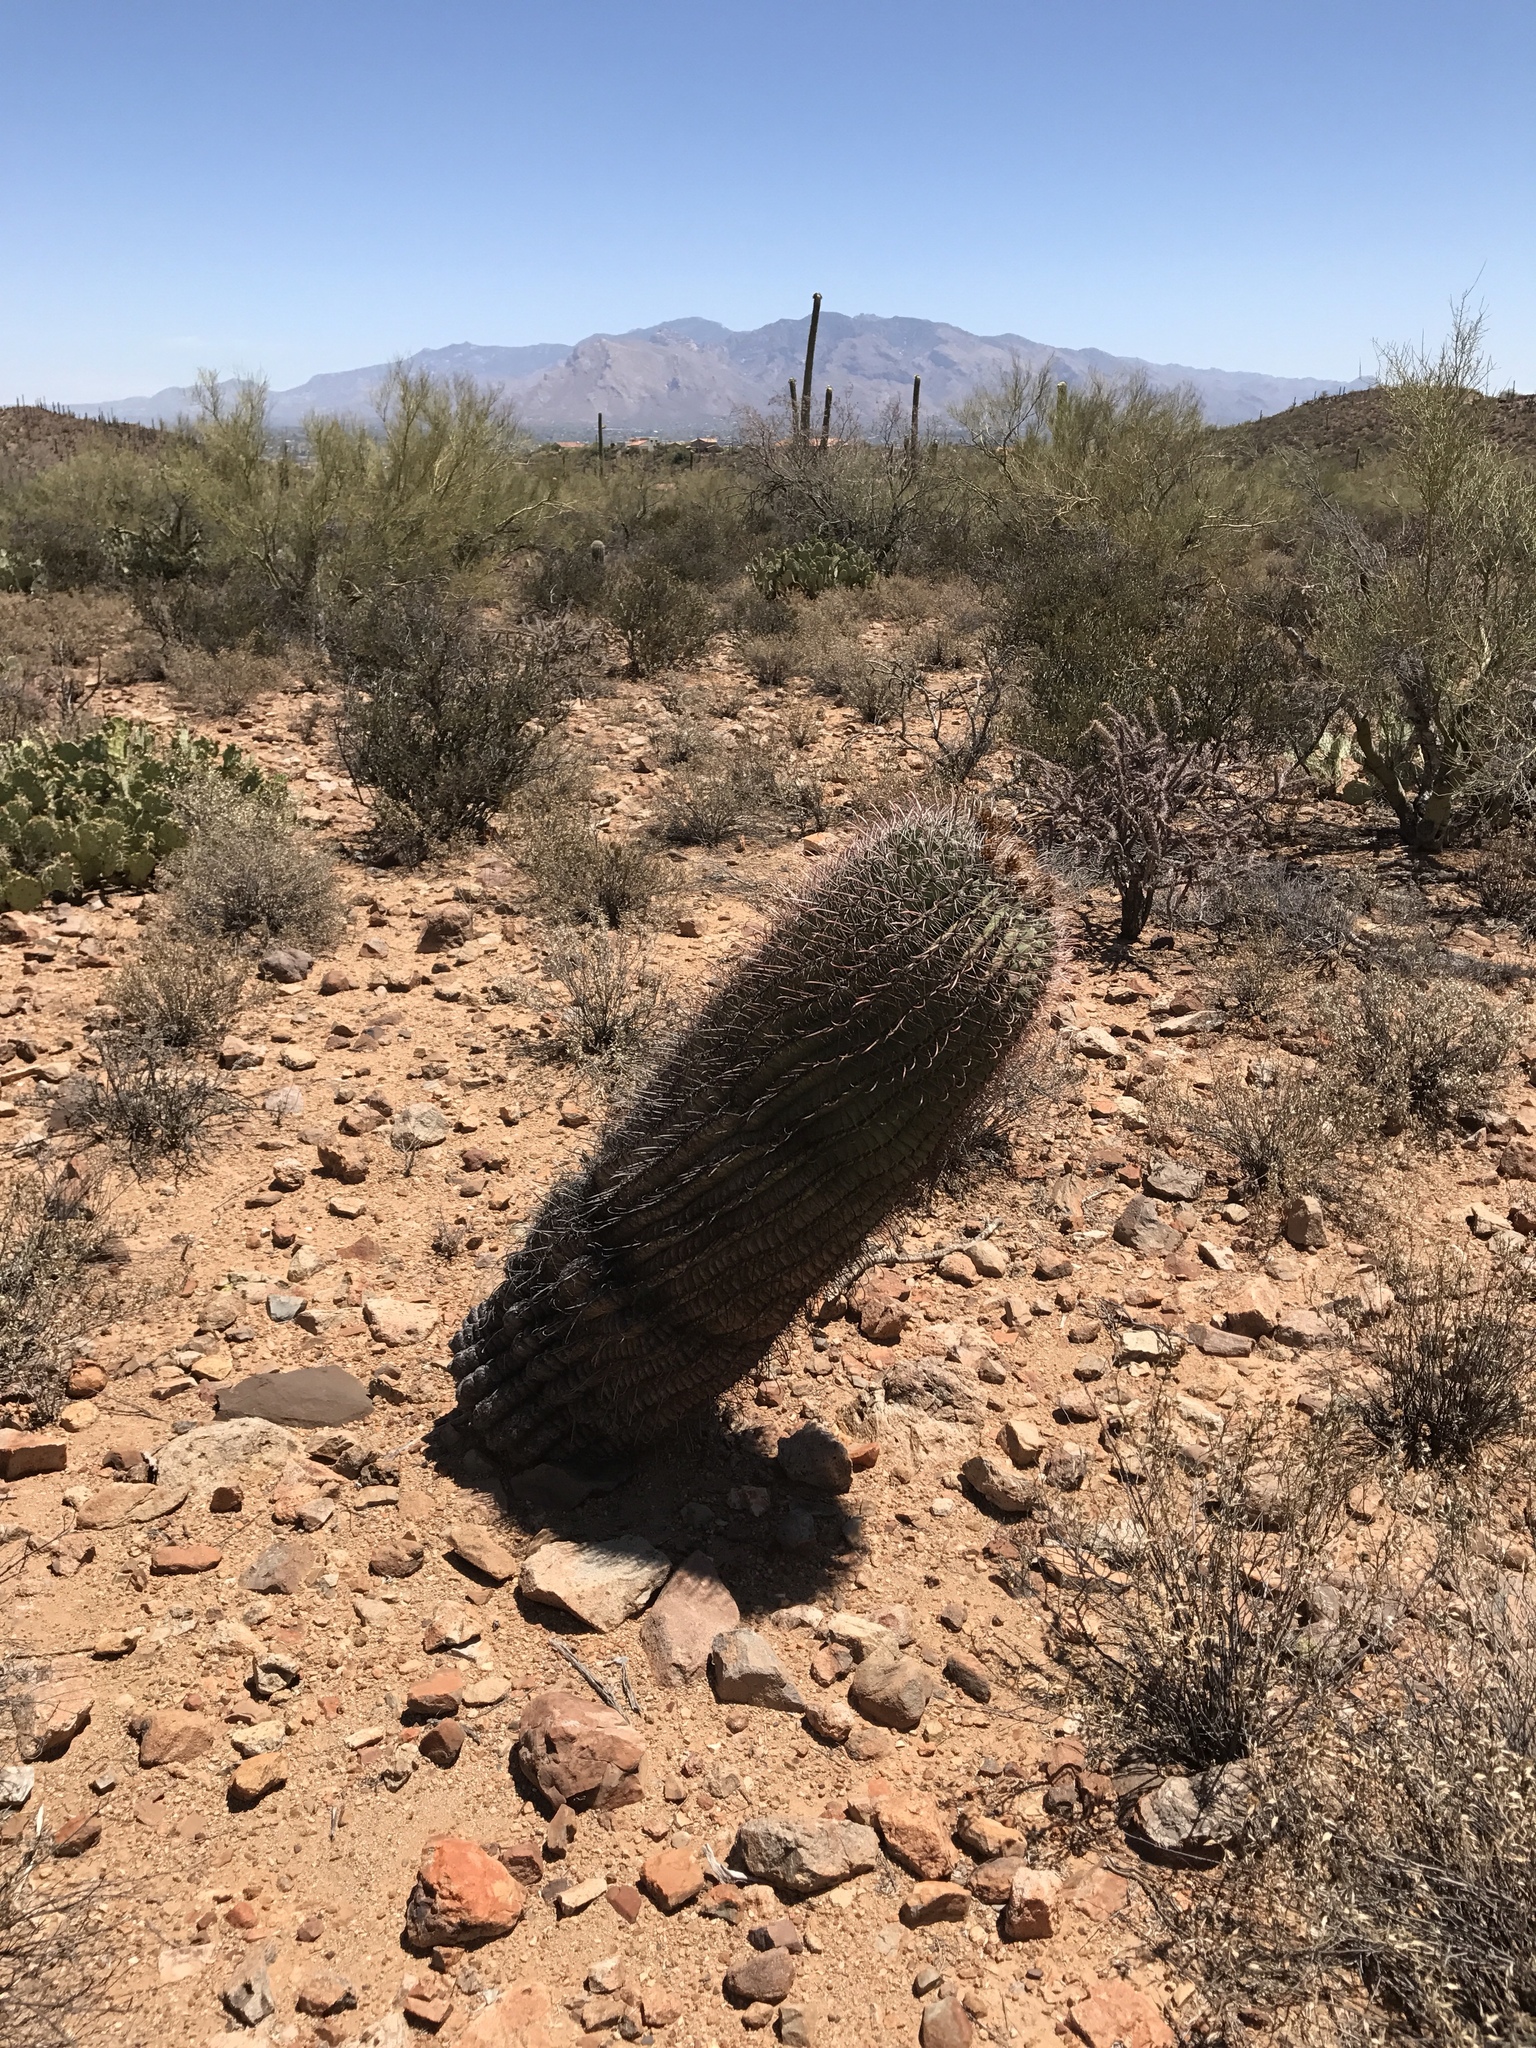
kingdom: Plantae
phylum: Tracheophyta
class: Magnoliopsida
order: Caryophyllales
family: Cactaceae
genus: Ferocactus
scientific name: Ferocactus wislizeni
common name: Candy barrel cactus
